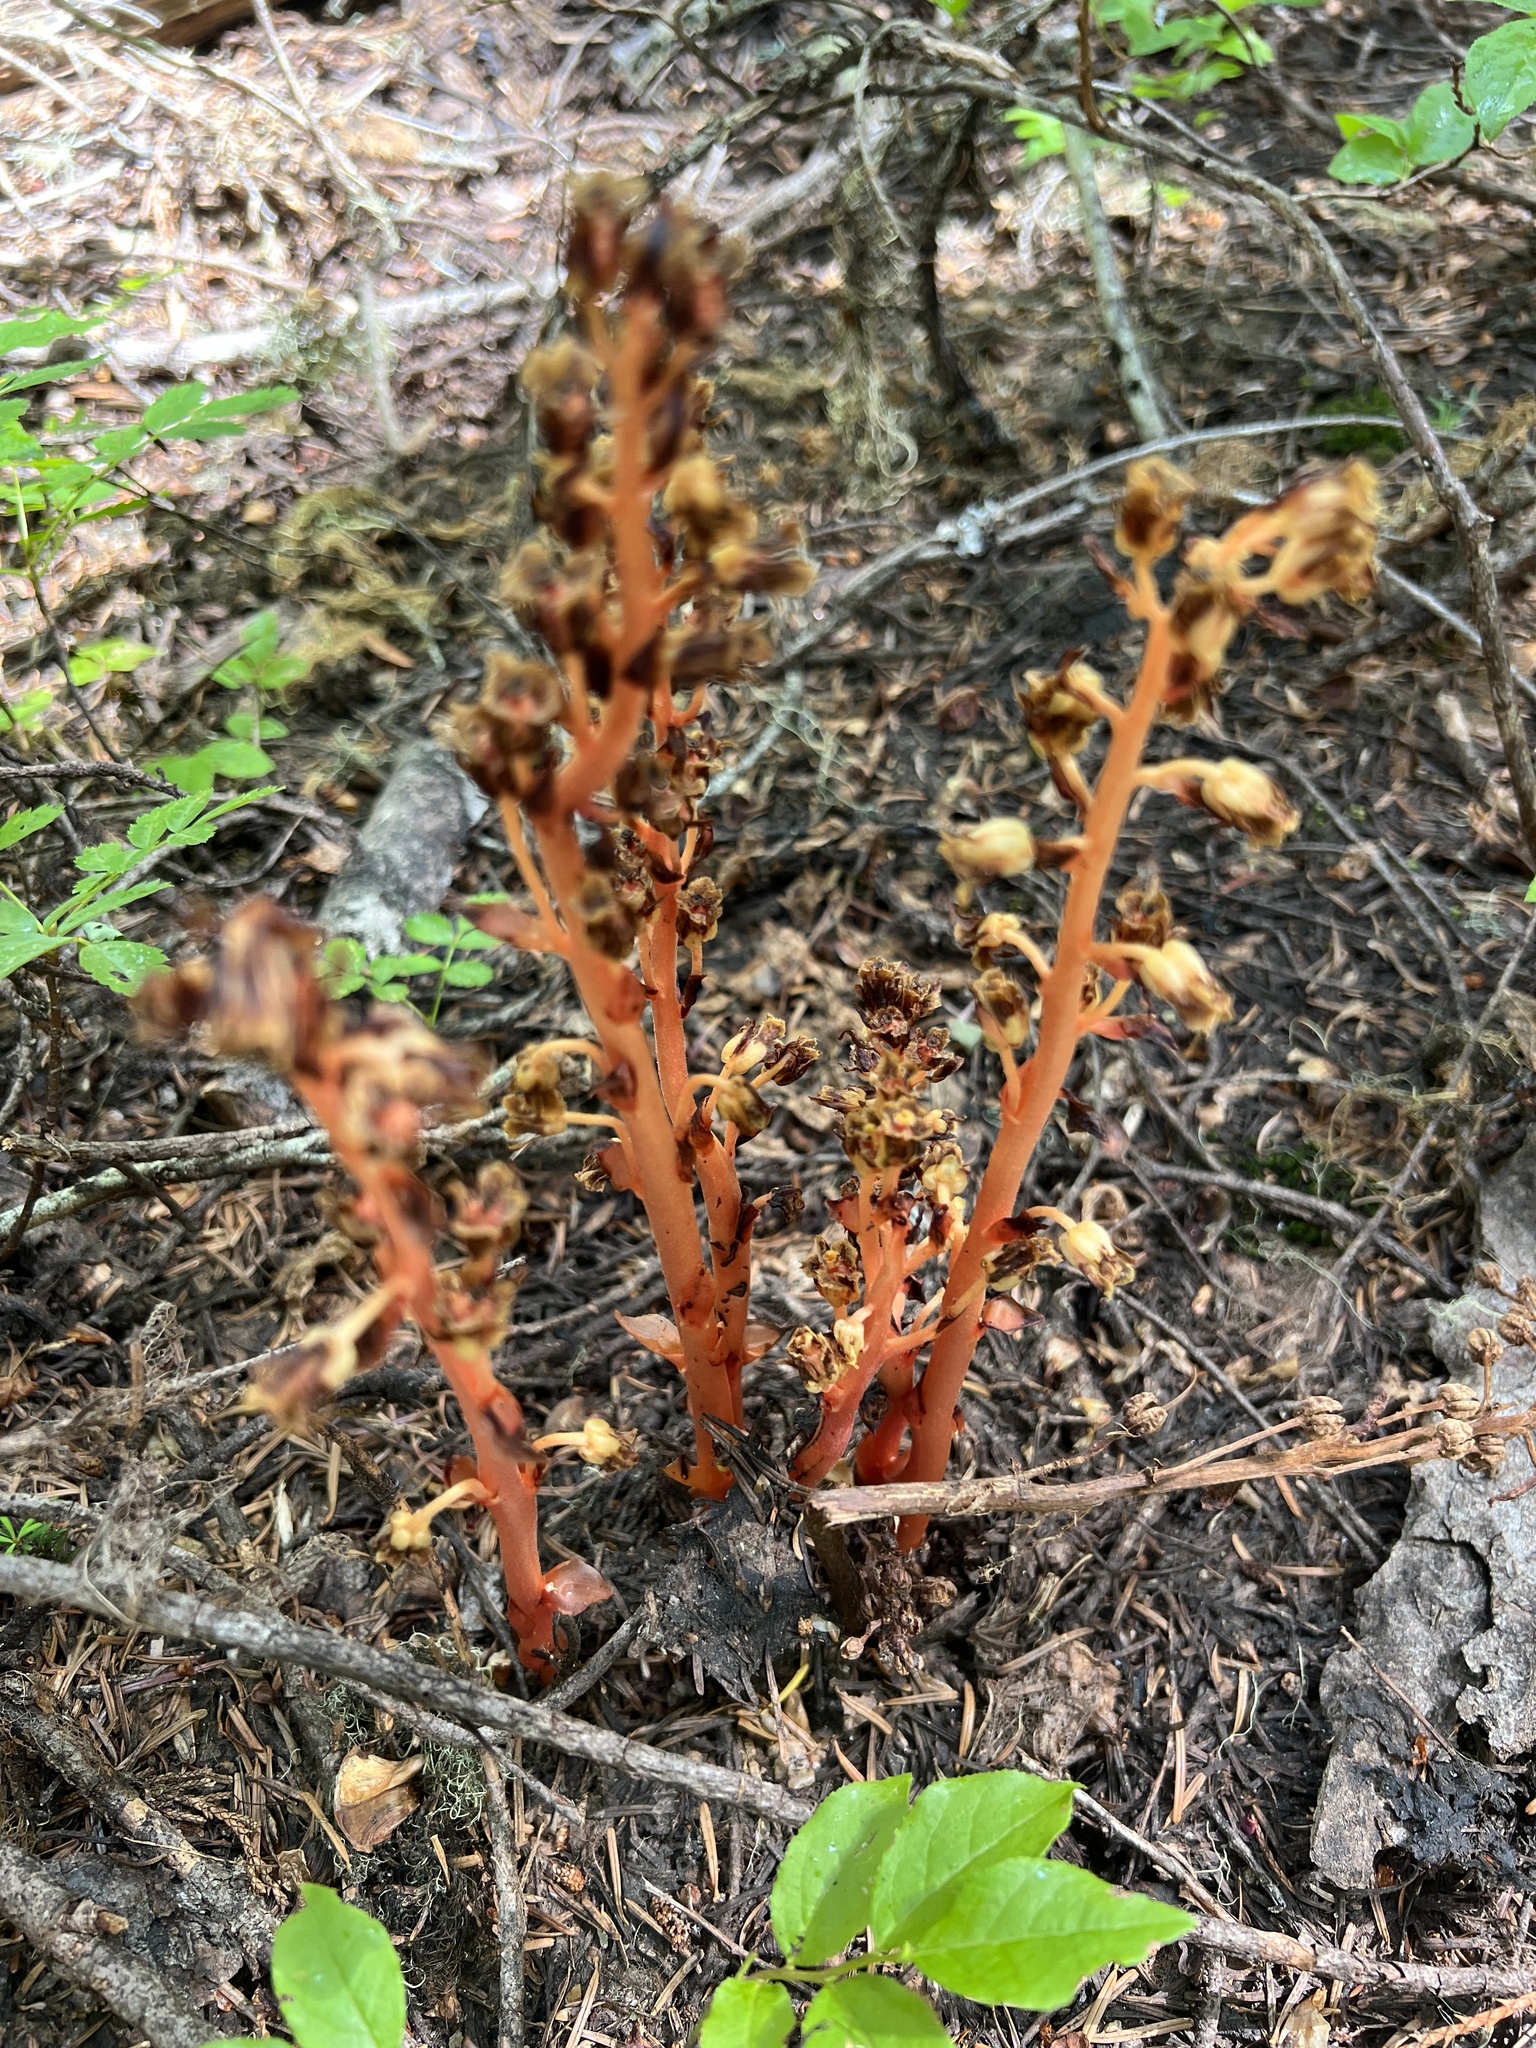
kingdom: Plantae
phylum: Tracheophyta
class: Magnoliopsida
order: Ericales
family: Ericaceae
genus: Hypopitys
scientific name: Hypopitys monotropa
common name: Yellow bird's-nest
